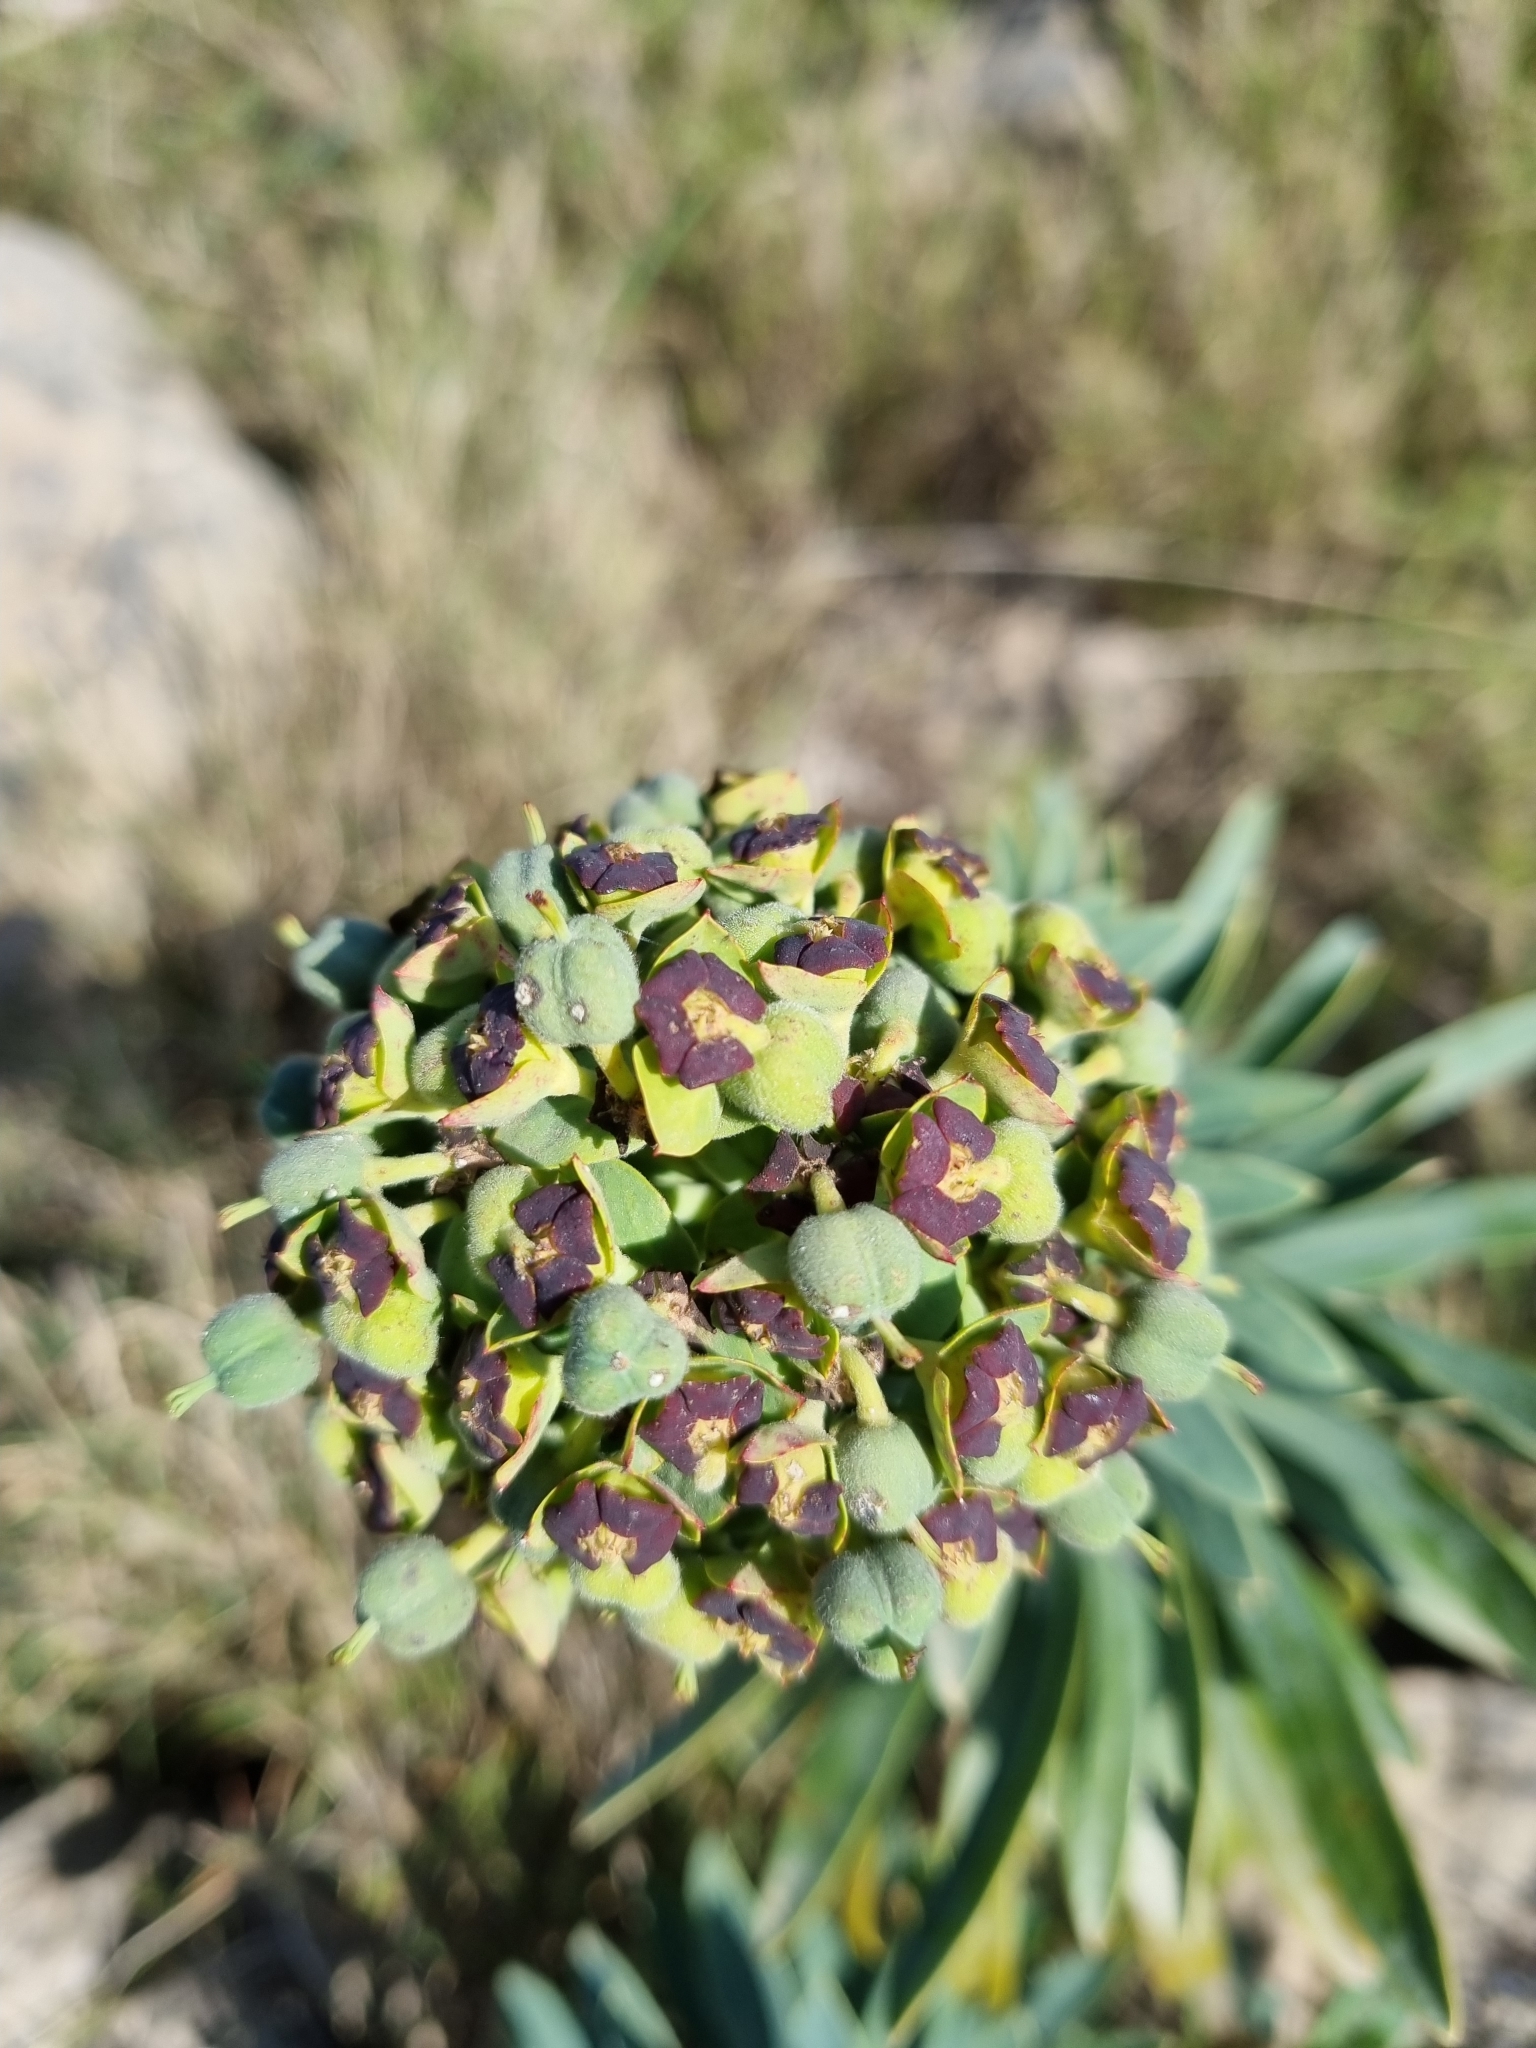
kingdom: Plantae
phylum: Tracheophyta
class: Magnoliopsida
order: Malpighiales
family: Euphorbiaceae
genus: Euphorbia
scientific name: Euphorbia characias
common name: Mediterranean spurge
